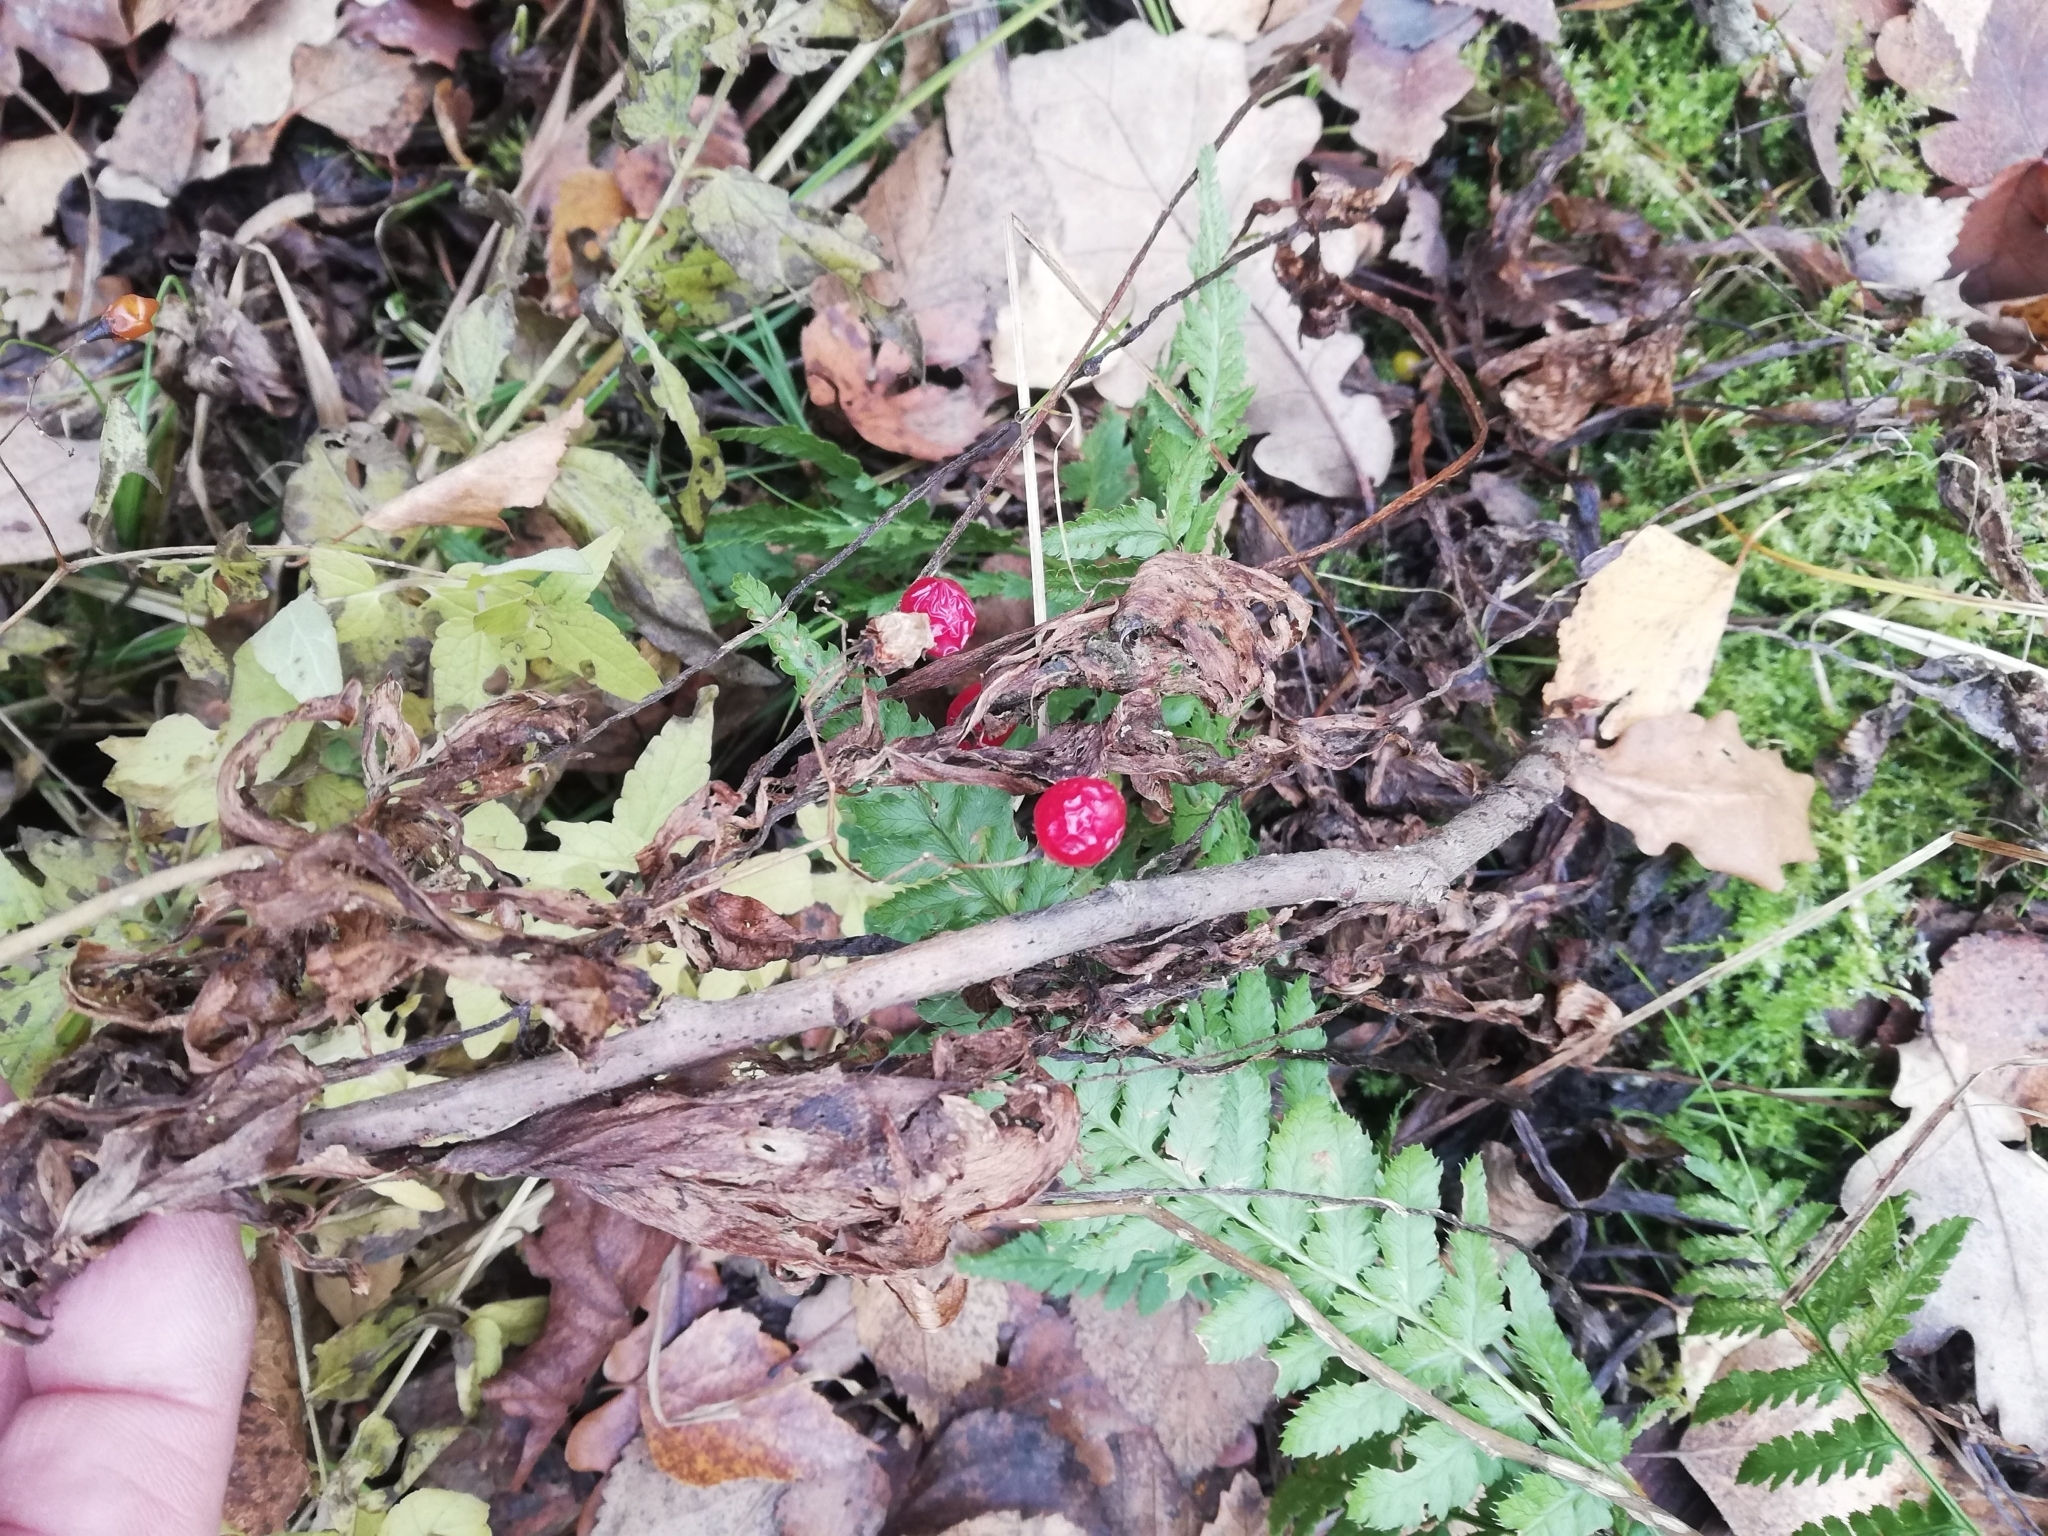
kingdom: Plantae
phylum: Tracheophyta
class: Magnoliopsida
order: Solanales
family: Solanaceae
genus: Solanum
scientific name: Solanum dulcamara
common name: Climbing nightshade
